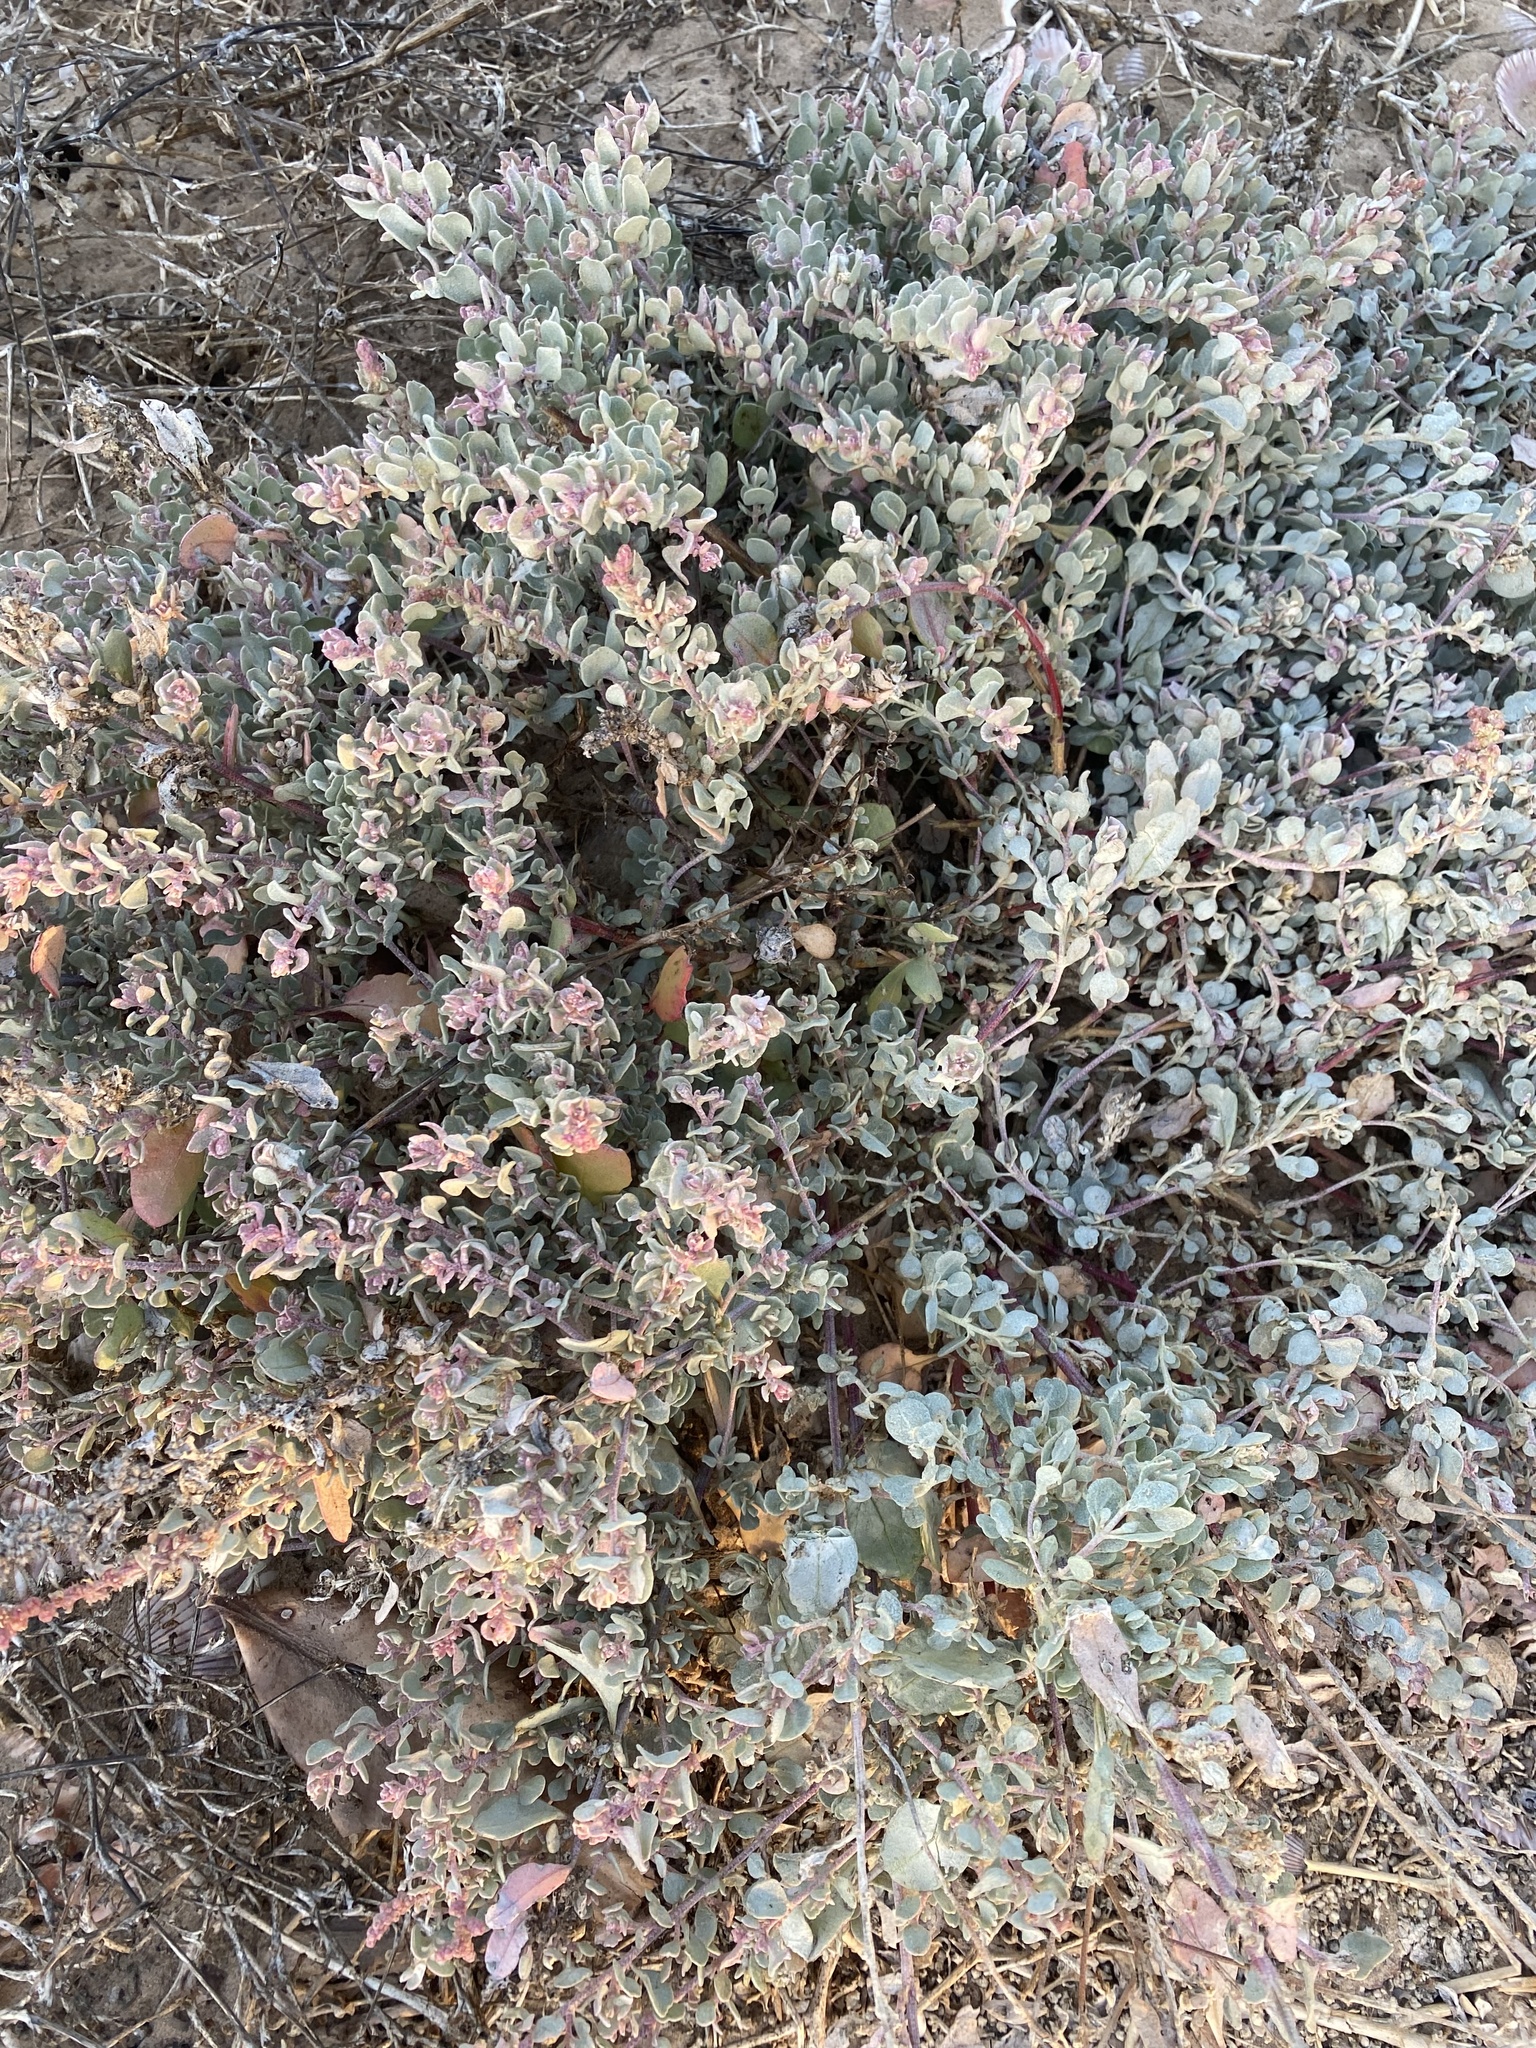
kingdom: Plantae
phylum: Tracheophyta
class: Magnoliopsida
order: Caryophyllales
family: Amaranthaceae
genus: Atriplex
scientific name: Atriplex barclayana
